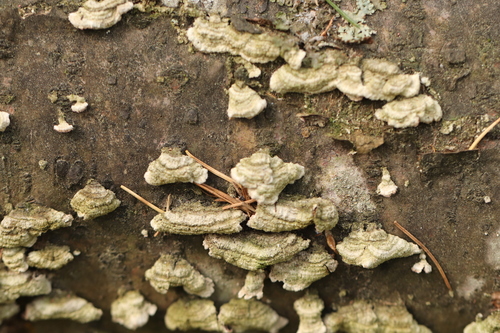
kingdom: Fungi
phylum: Basidiomycota
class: Agaricomycetes
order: Hymenochaetales
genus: Trichaptum
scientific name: Trichaptum fuscoviolaceum
